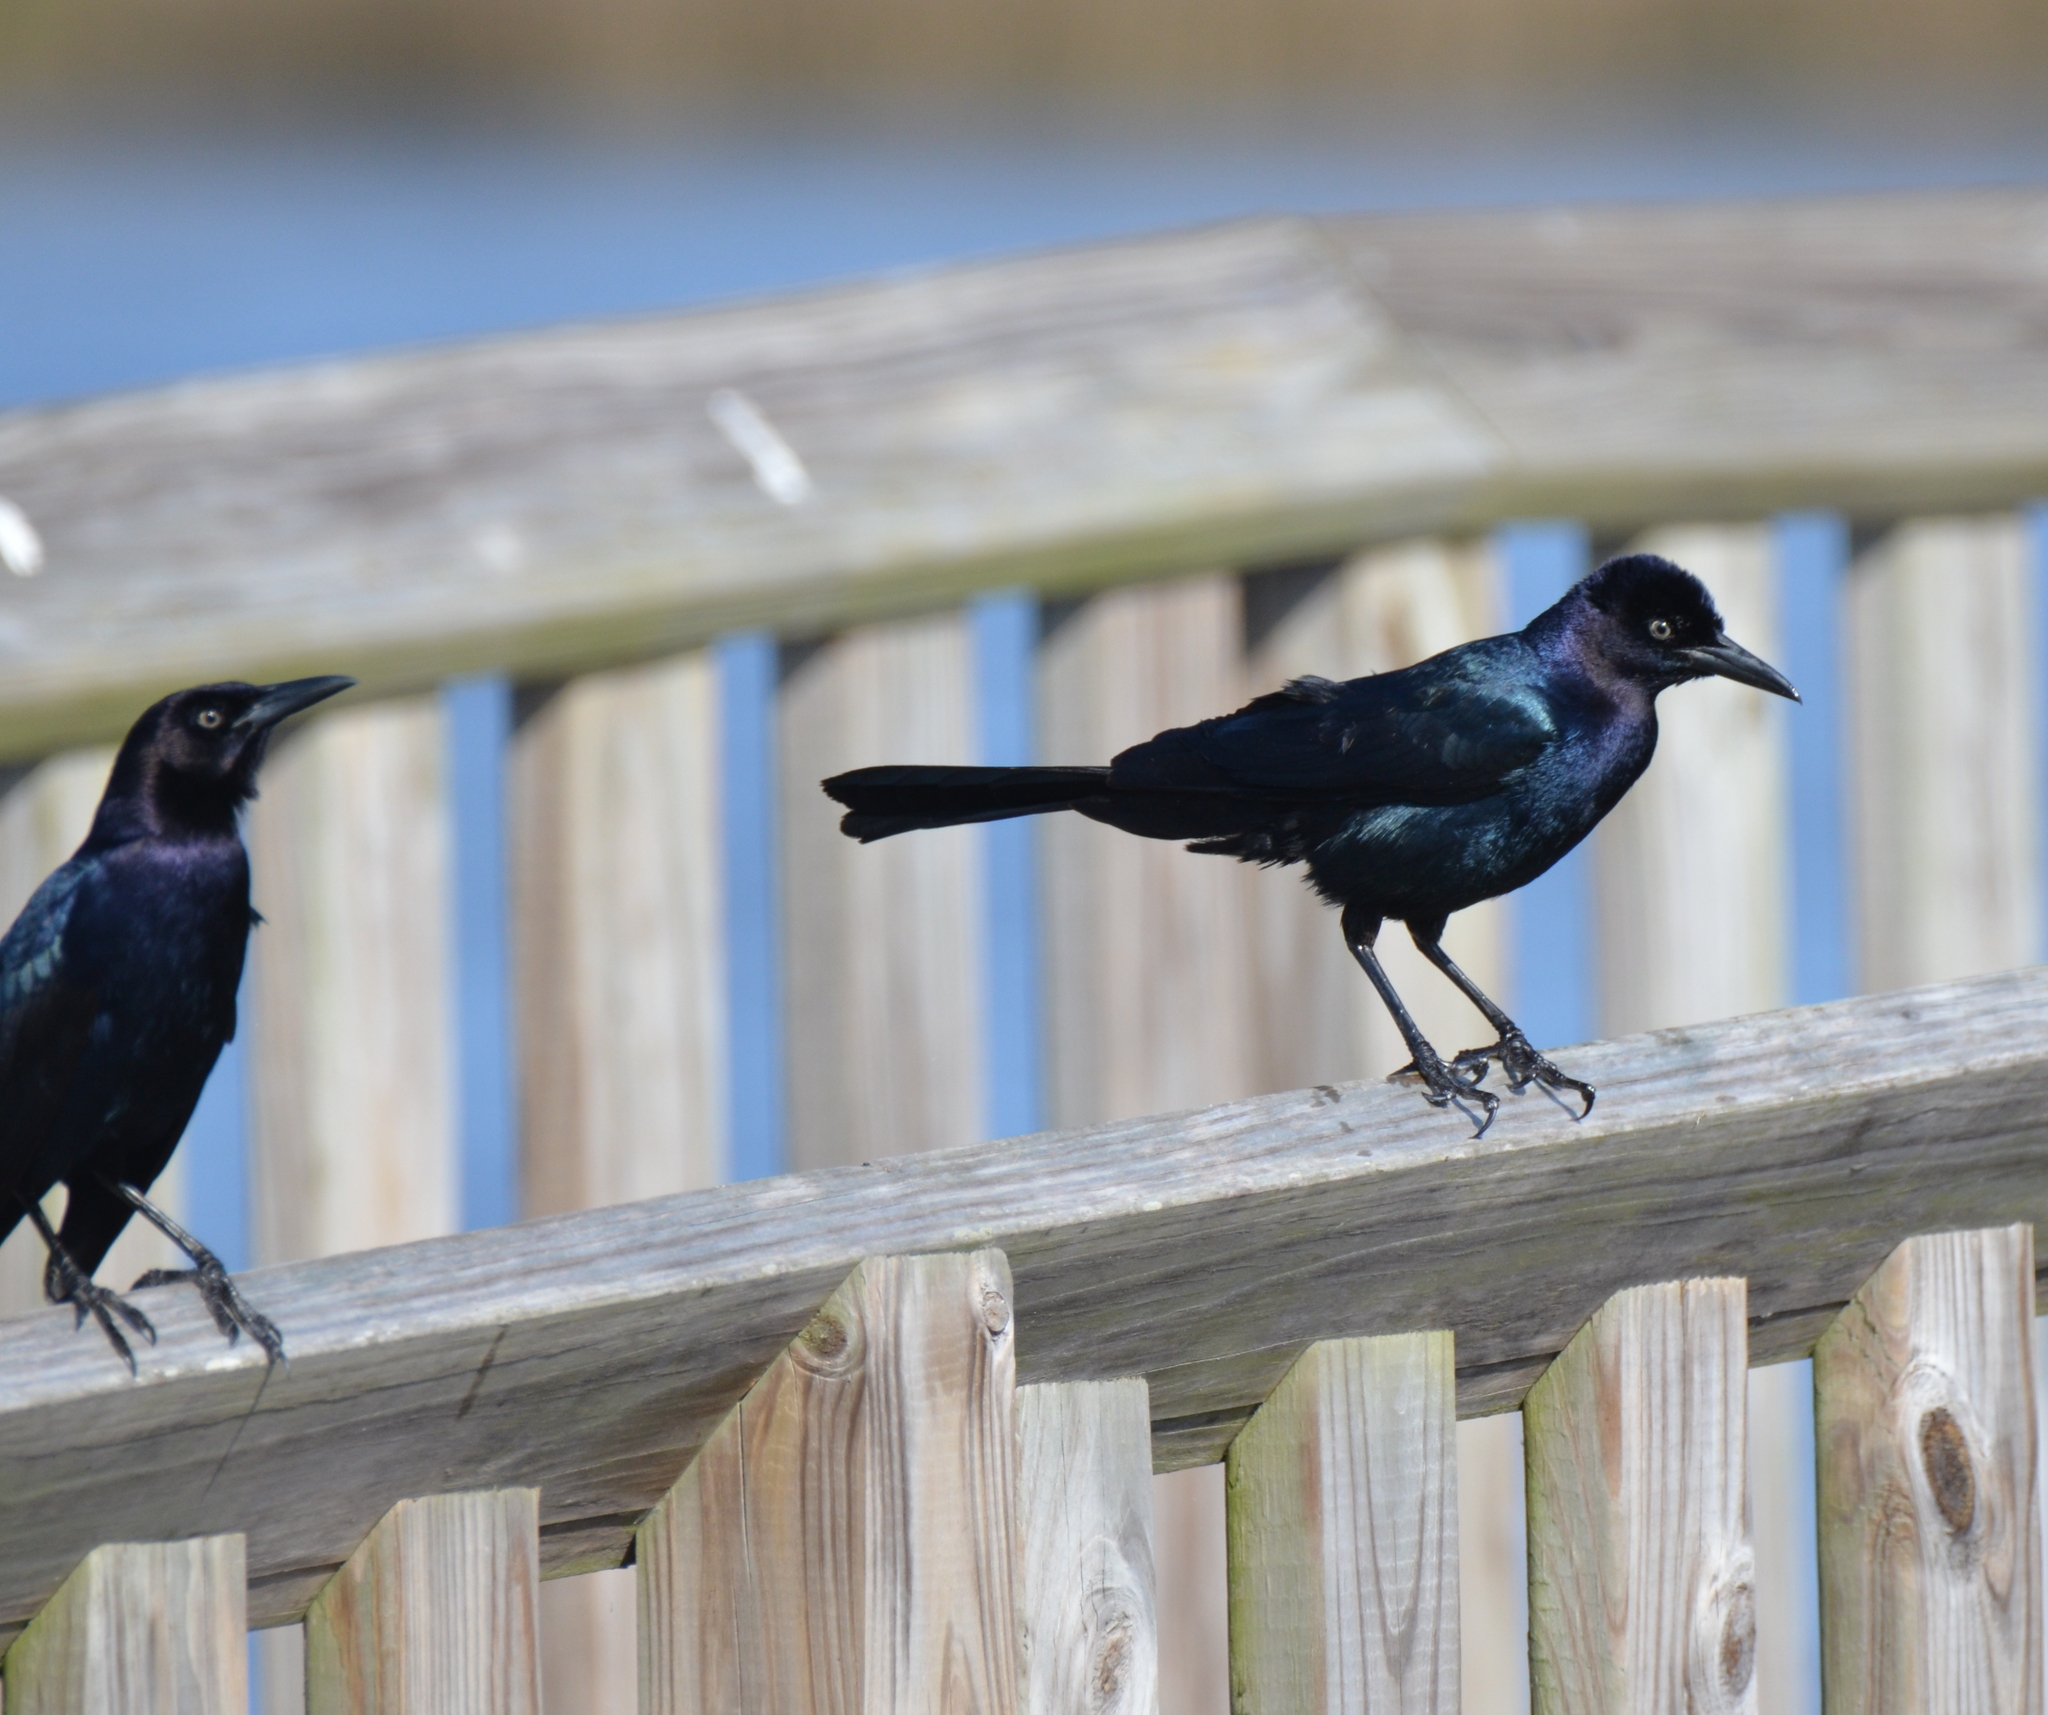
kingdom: Animalia
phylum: Chordata
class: Aves
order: Passeriformes
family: Icteridae
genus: Quiscalus
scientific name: Quiscalus major
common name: Boat-tailed grackle
